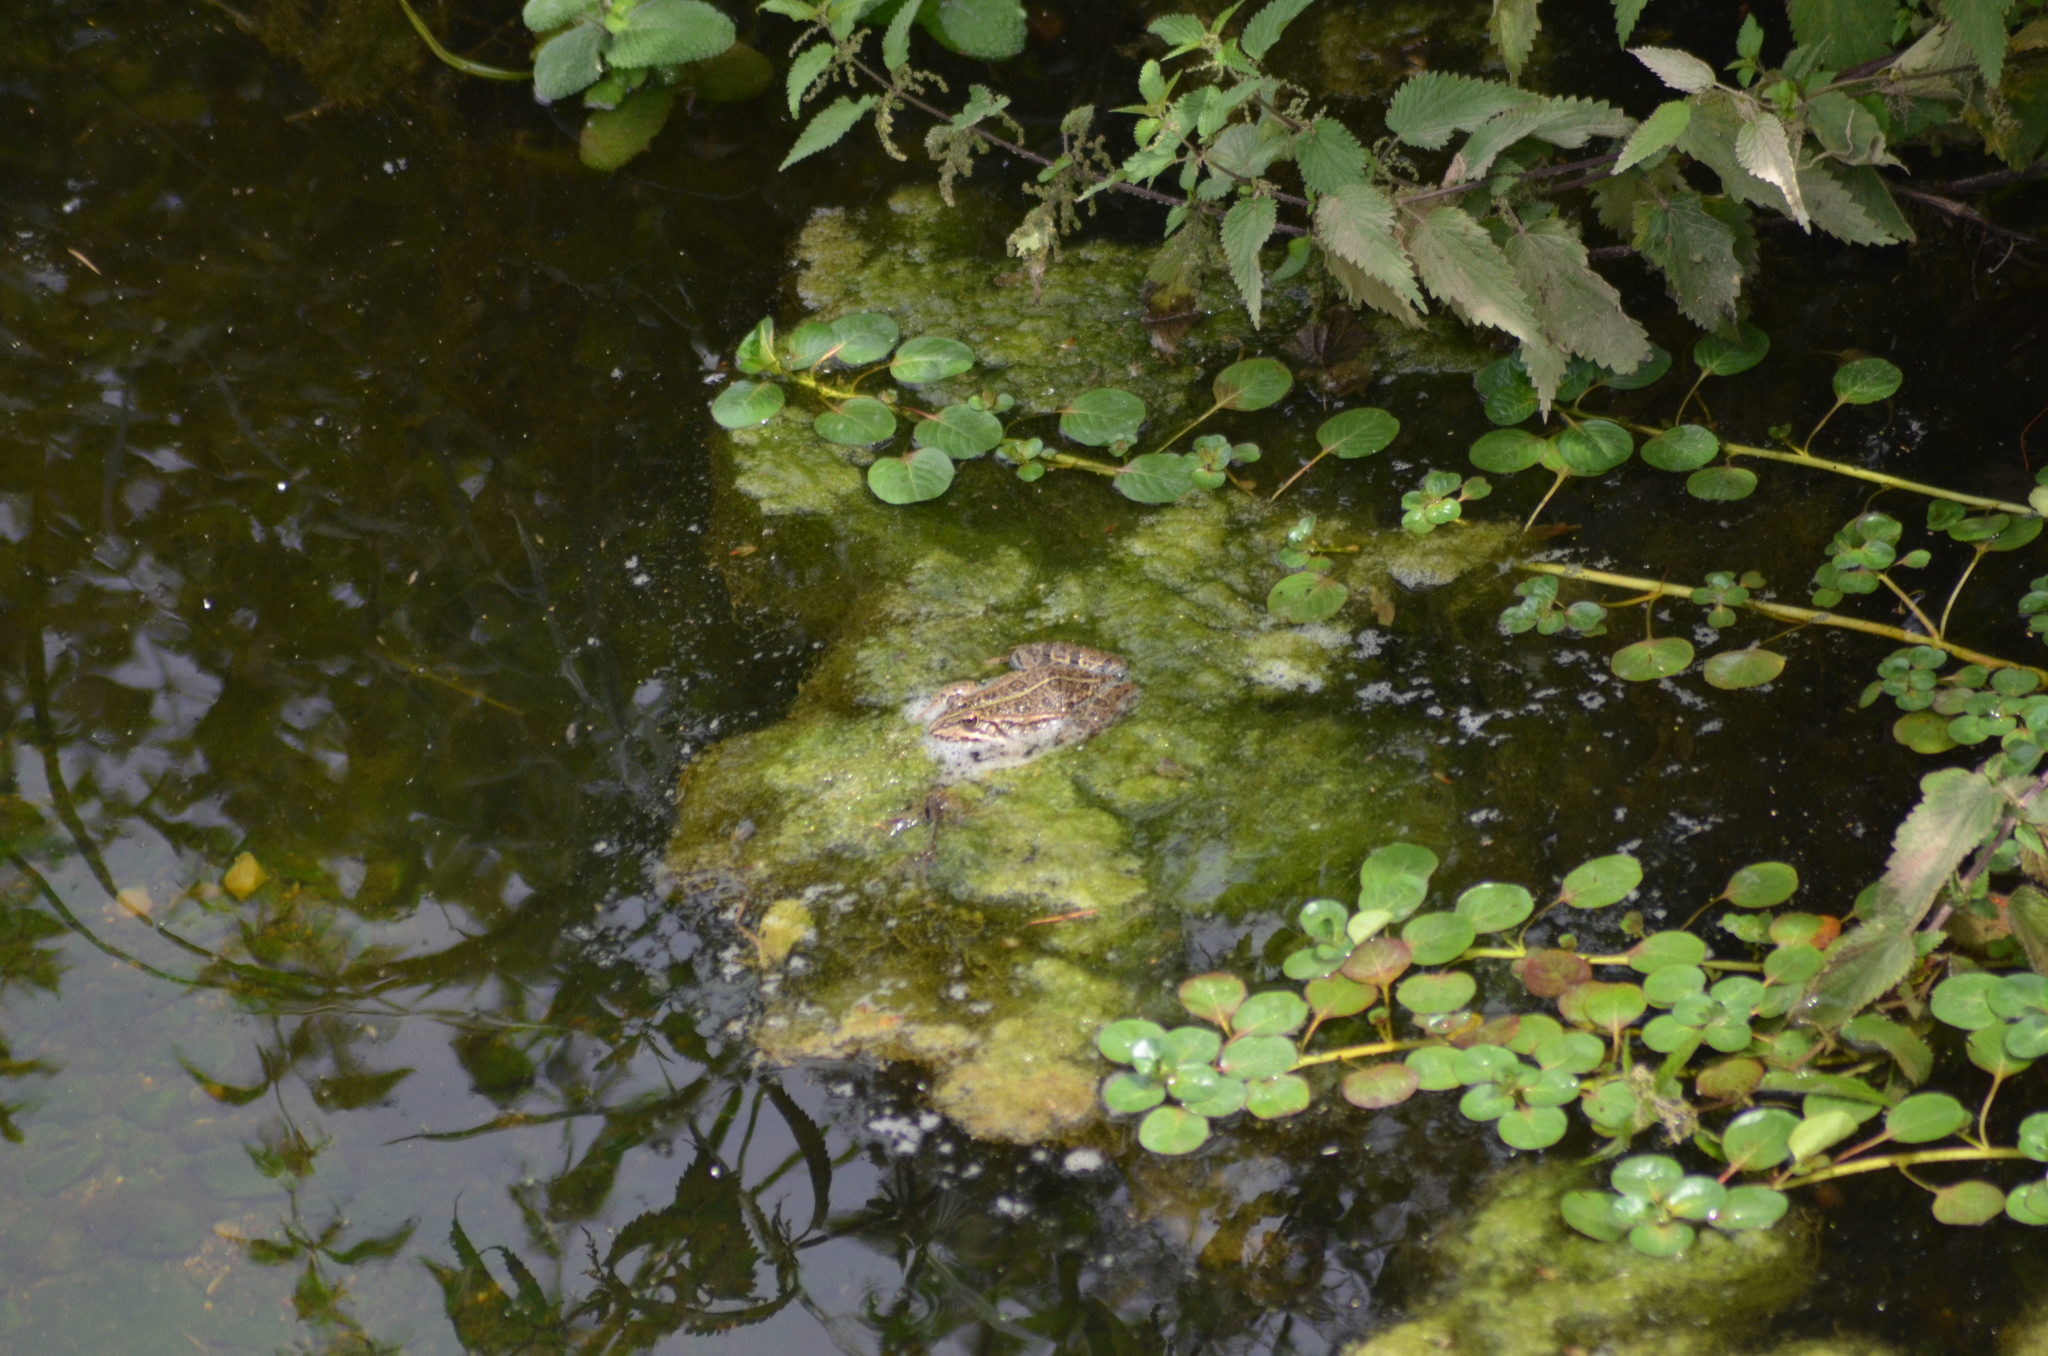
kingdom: Animalia
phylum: Chordata
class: Amphibia
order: Anura
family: Ranidae
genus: Pelophylax
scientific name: Pelophylax perezi
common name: Perez's frog
